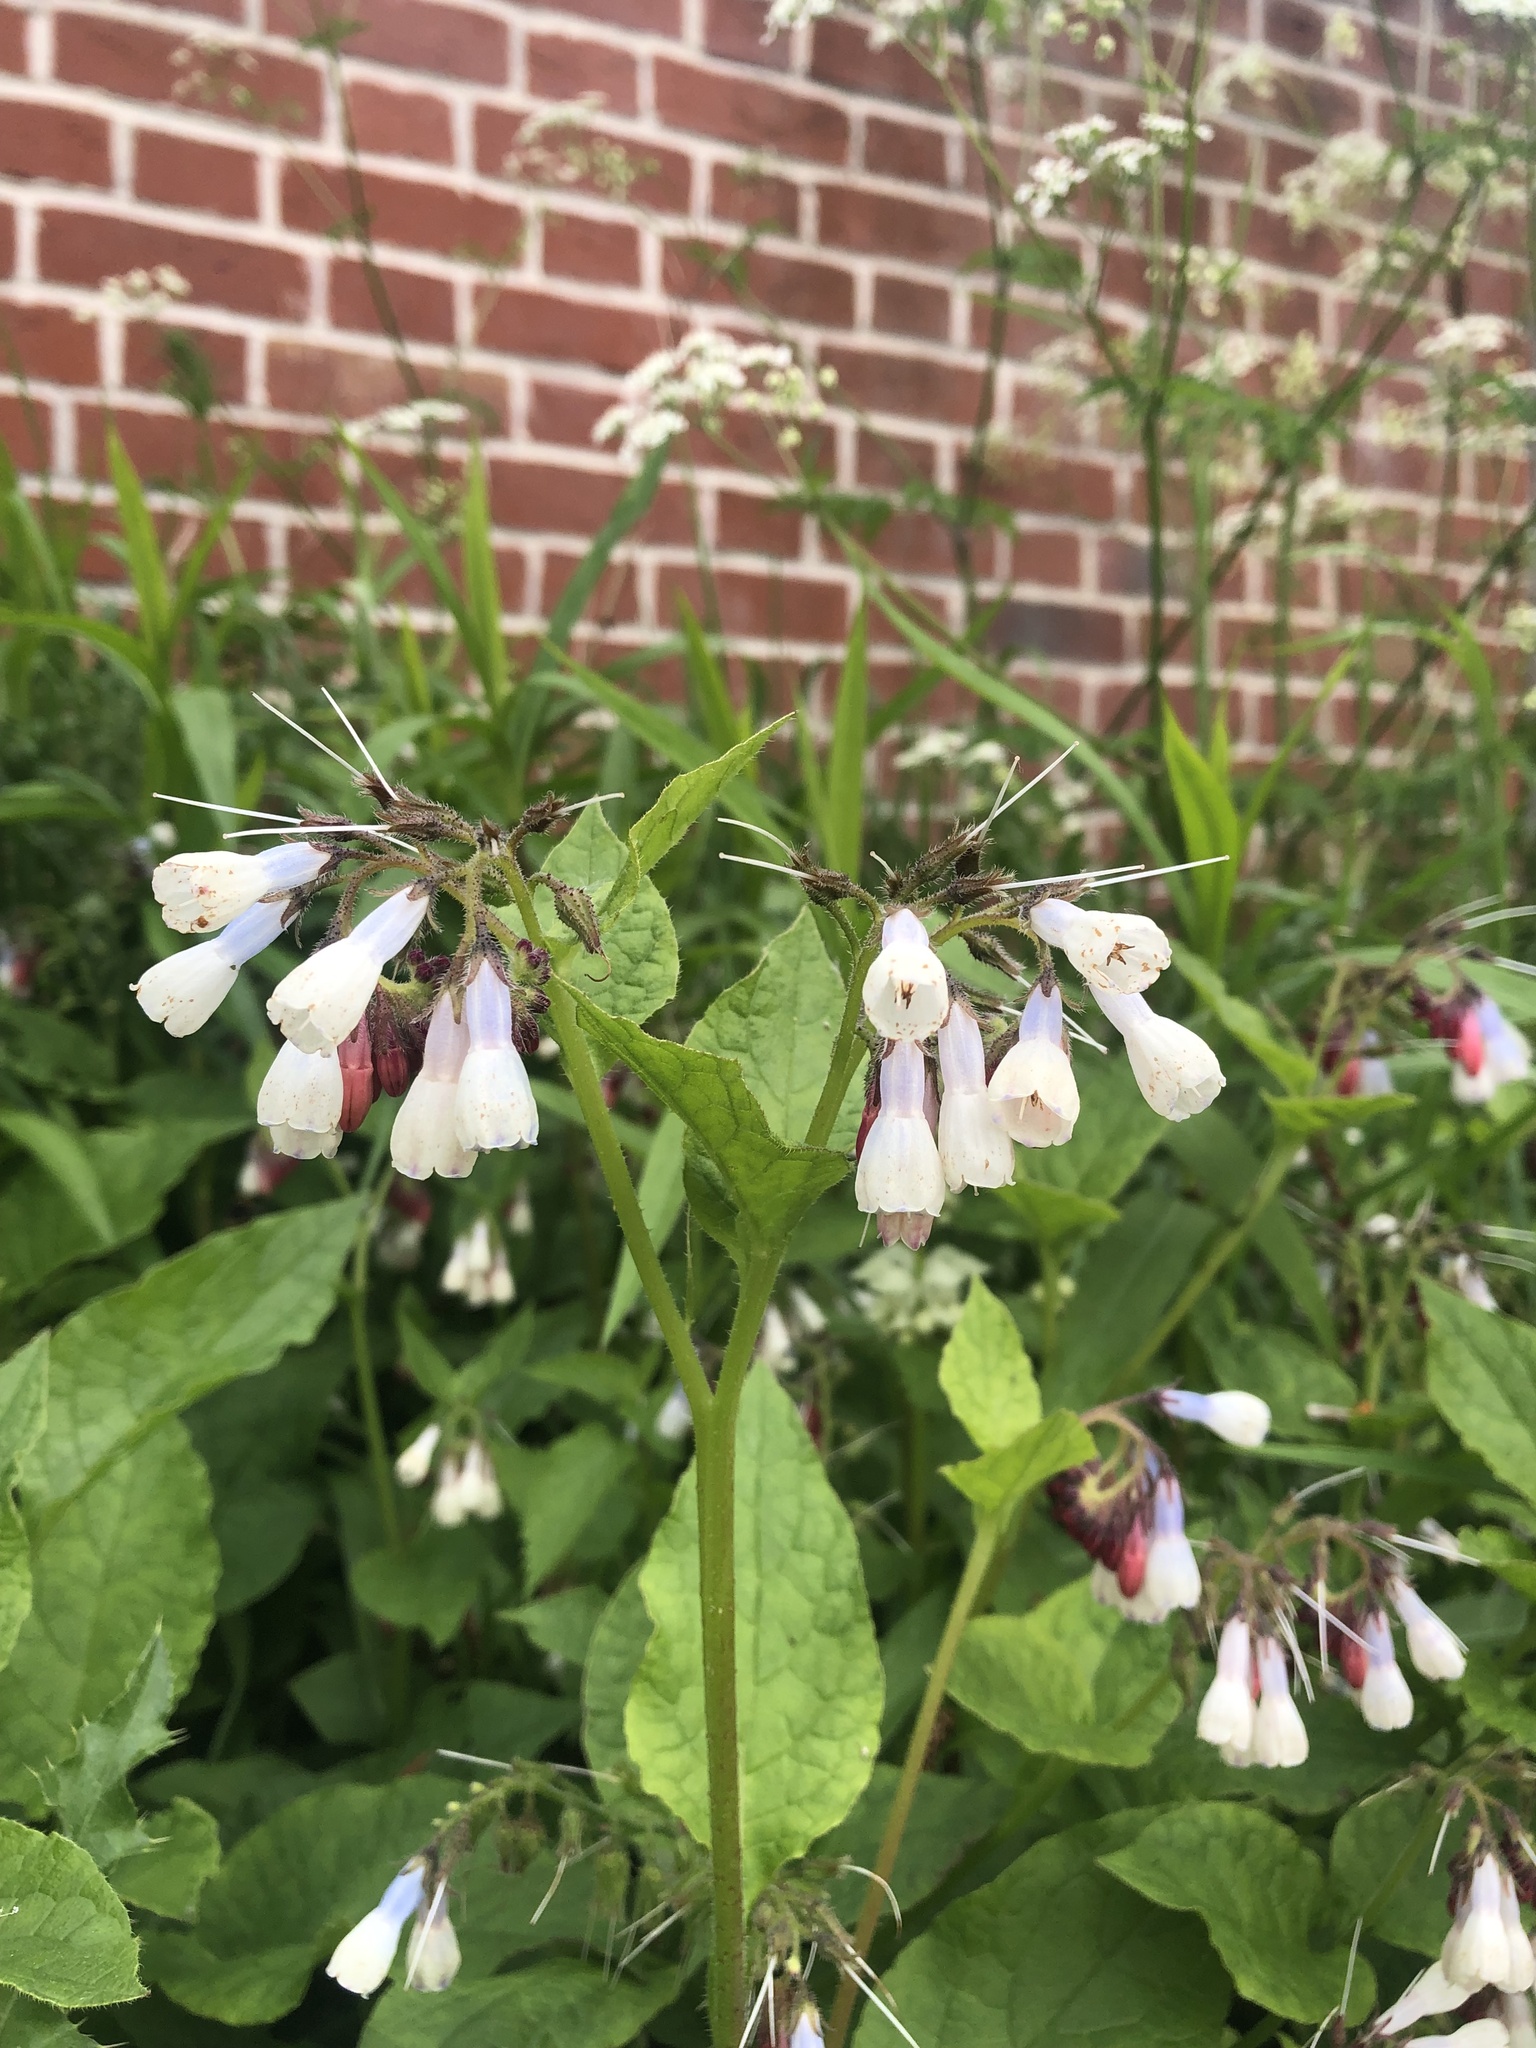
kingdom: Plantae
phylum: Tracheophyta
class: Magnoliopsida
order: Boraginales
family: Boraginaceae
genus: Symphytum
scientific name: Symphytum hidcotense
